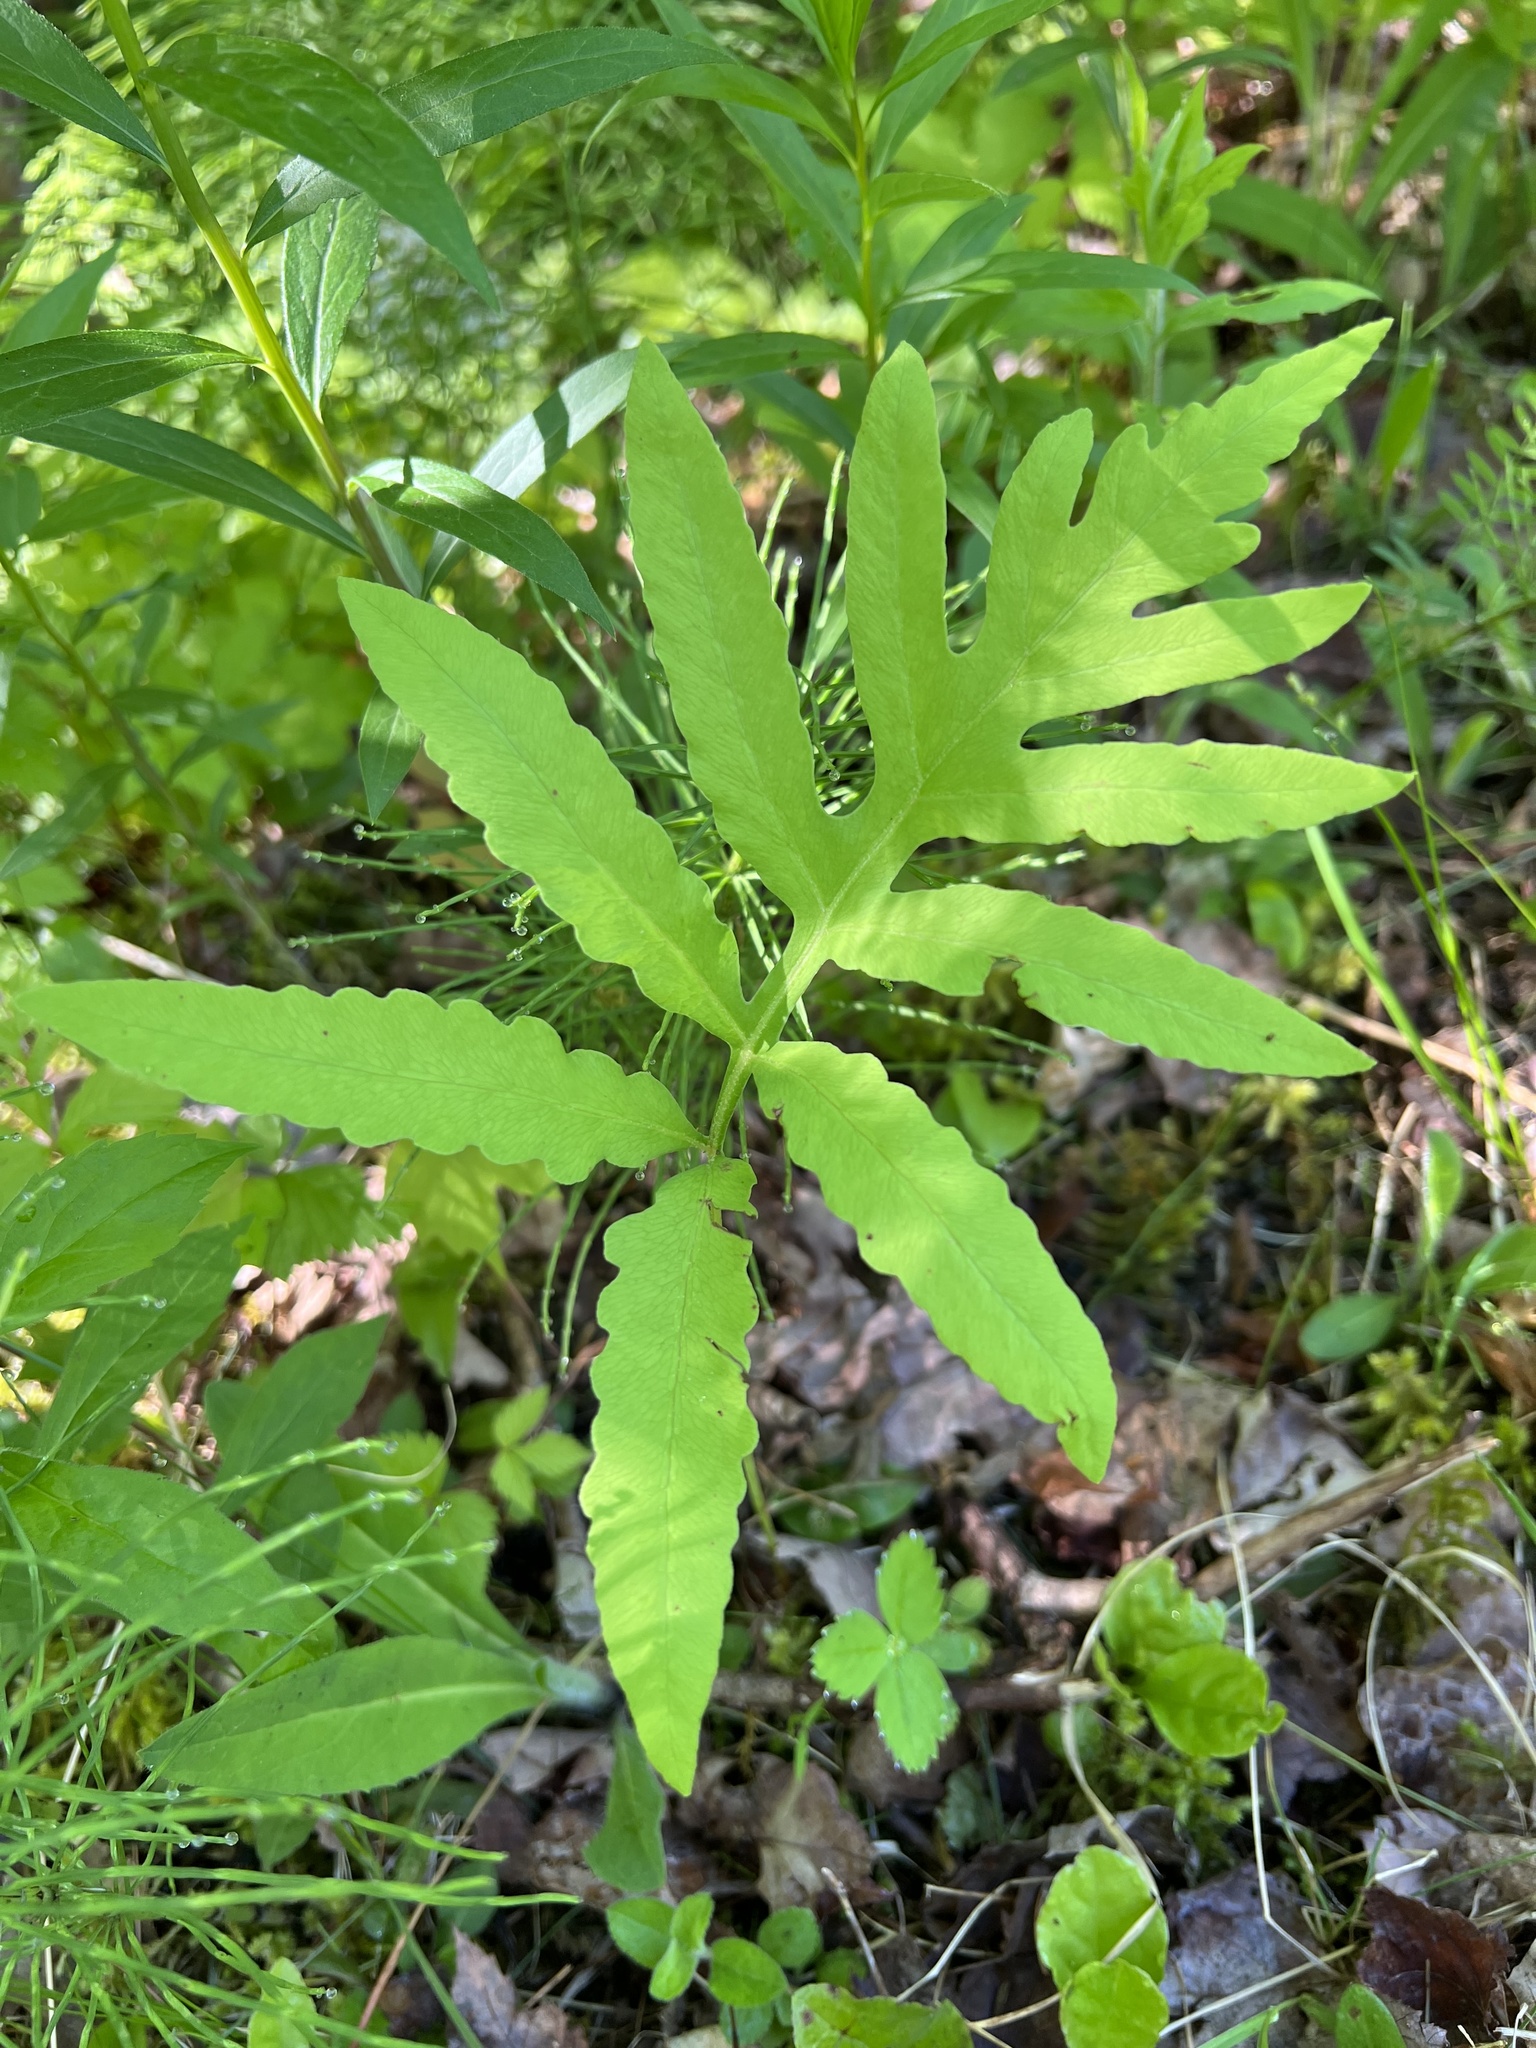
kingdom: Plantae
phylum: Tracheophyta
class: Polypodiopsida
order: Polypodiales
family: Onocleaceae
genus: Onoclea
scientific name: Onoclea sensibilis
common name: Sensitive fern
